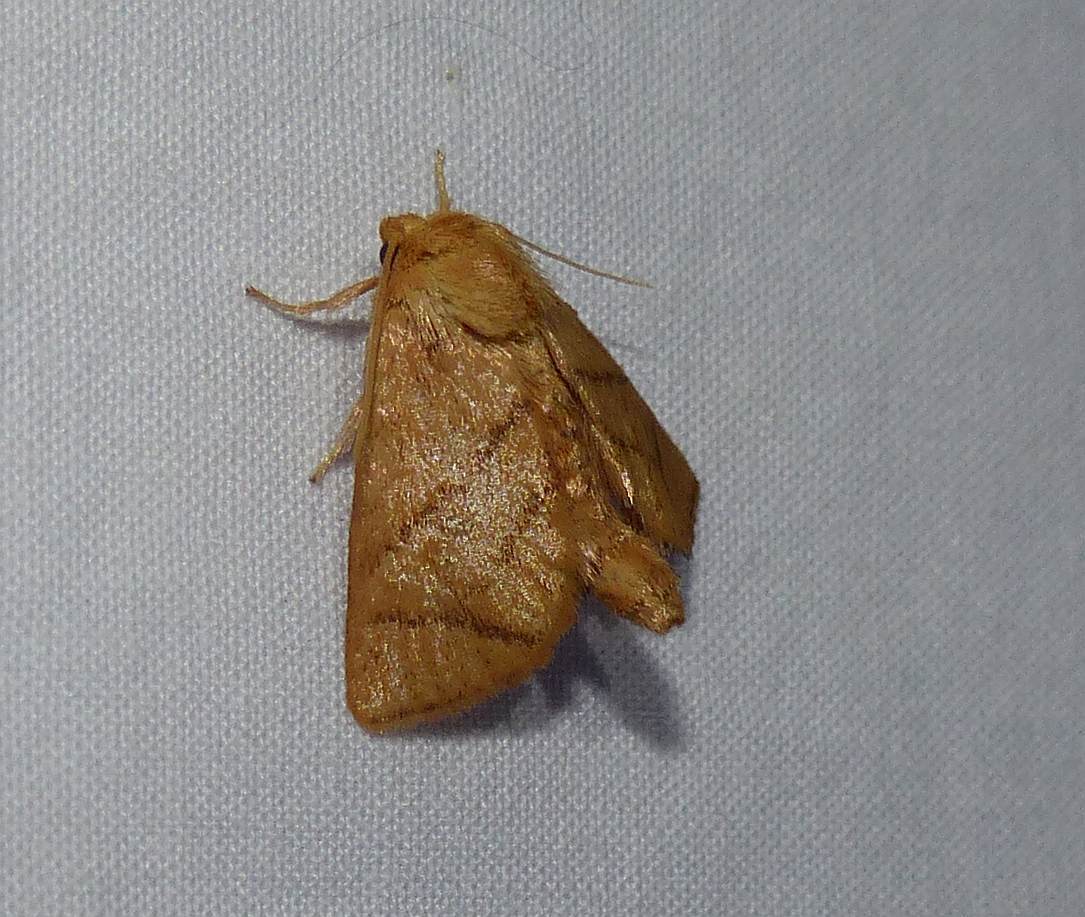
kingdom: Animalia
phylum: Arthropoda
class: Insecta
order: Lepidoptera
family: Limacodidae
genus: Apoda
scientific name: Apoda y-inversa
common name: Yellow-collared slug moth
